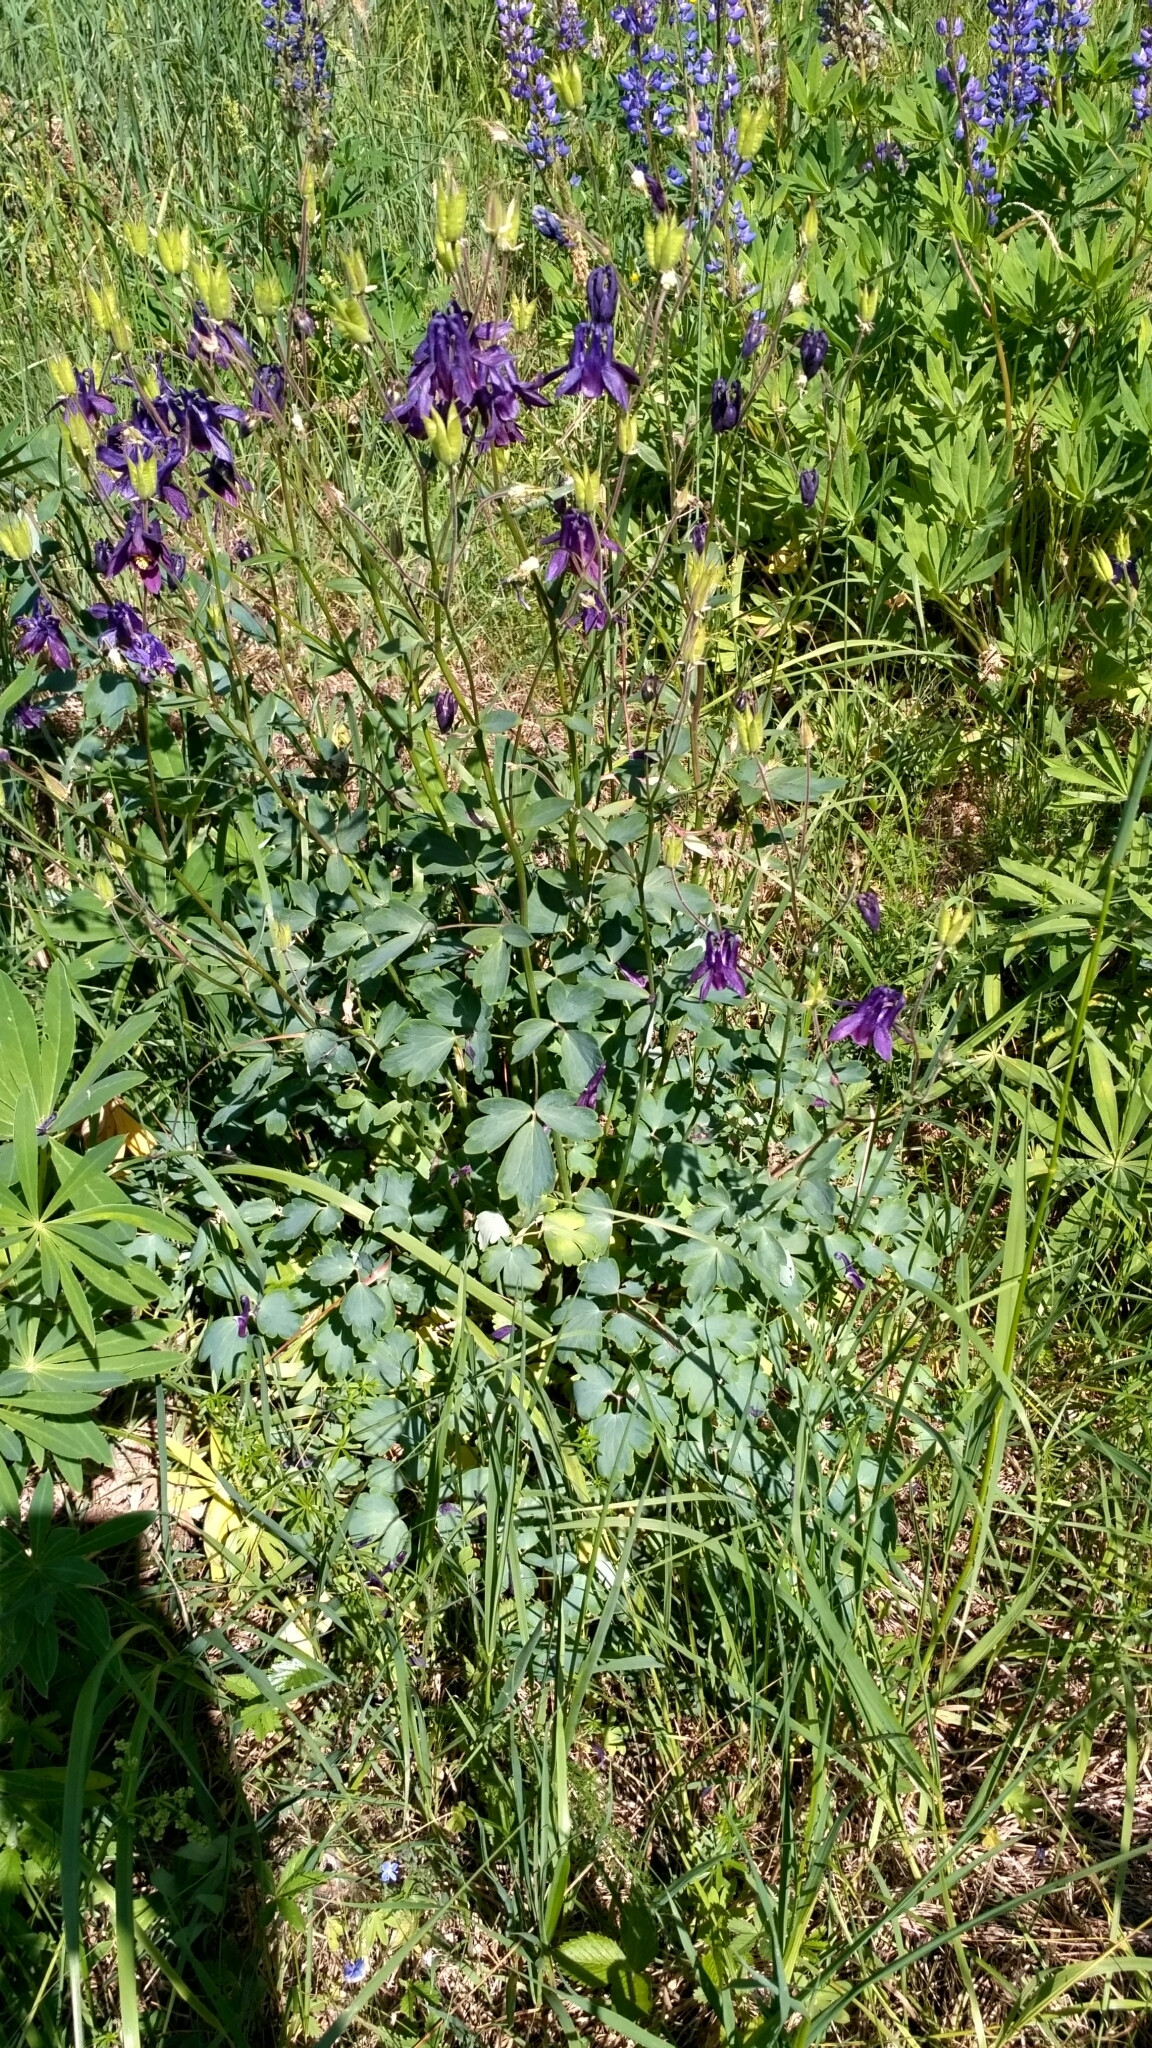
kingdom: Plantae
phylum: Tracheophyta
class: Magnoliopsida
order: Ranunculales
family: Ranunculaceae
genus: Aquilegia
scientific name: Aquilegia vulgaris
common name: Columbine
